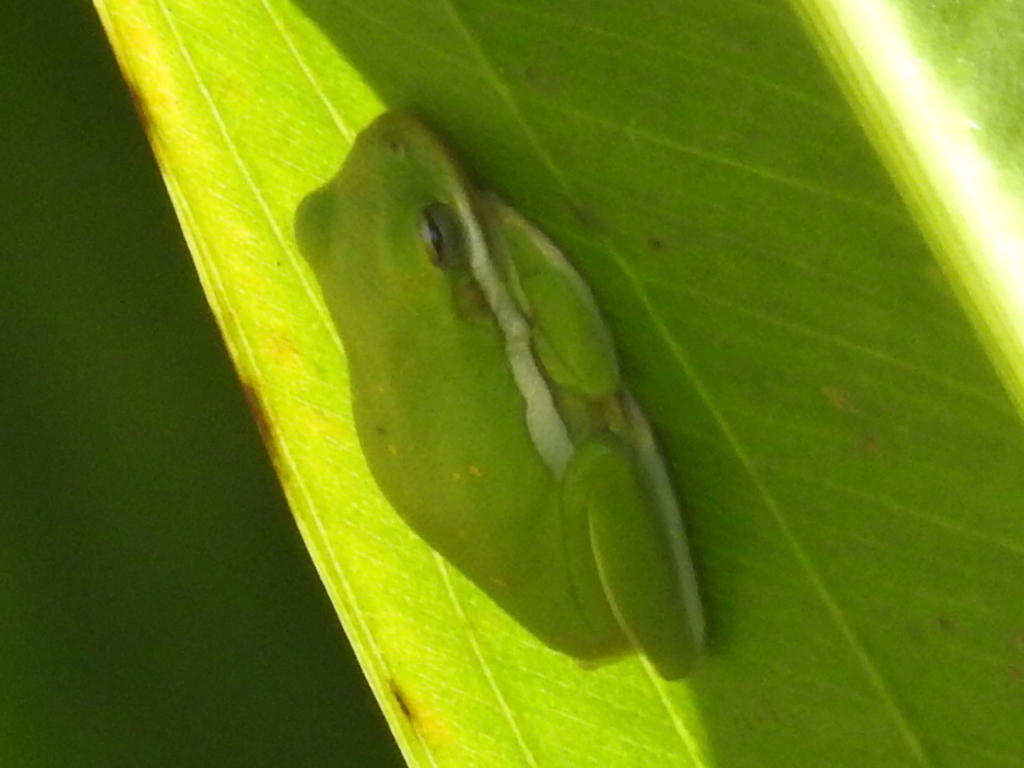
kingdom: Animalia
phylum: Chordata
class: Amphibia
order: Anura
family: Hylidae
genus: Dryophytes
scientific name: Dryophytes cinereus
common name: Green treefrog
